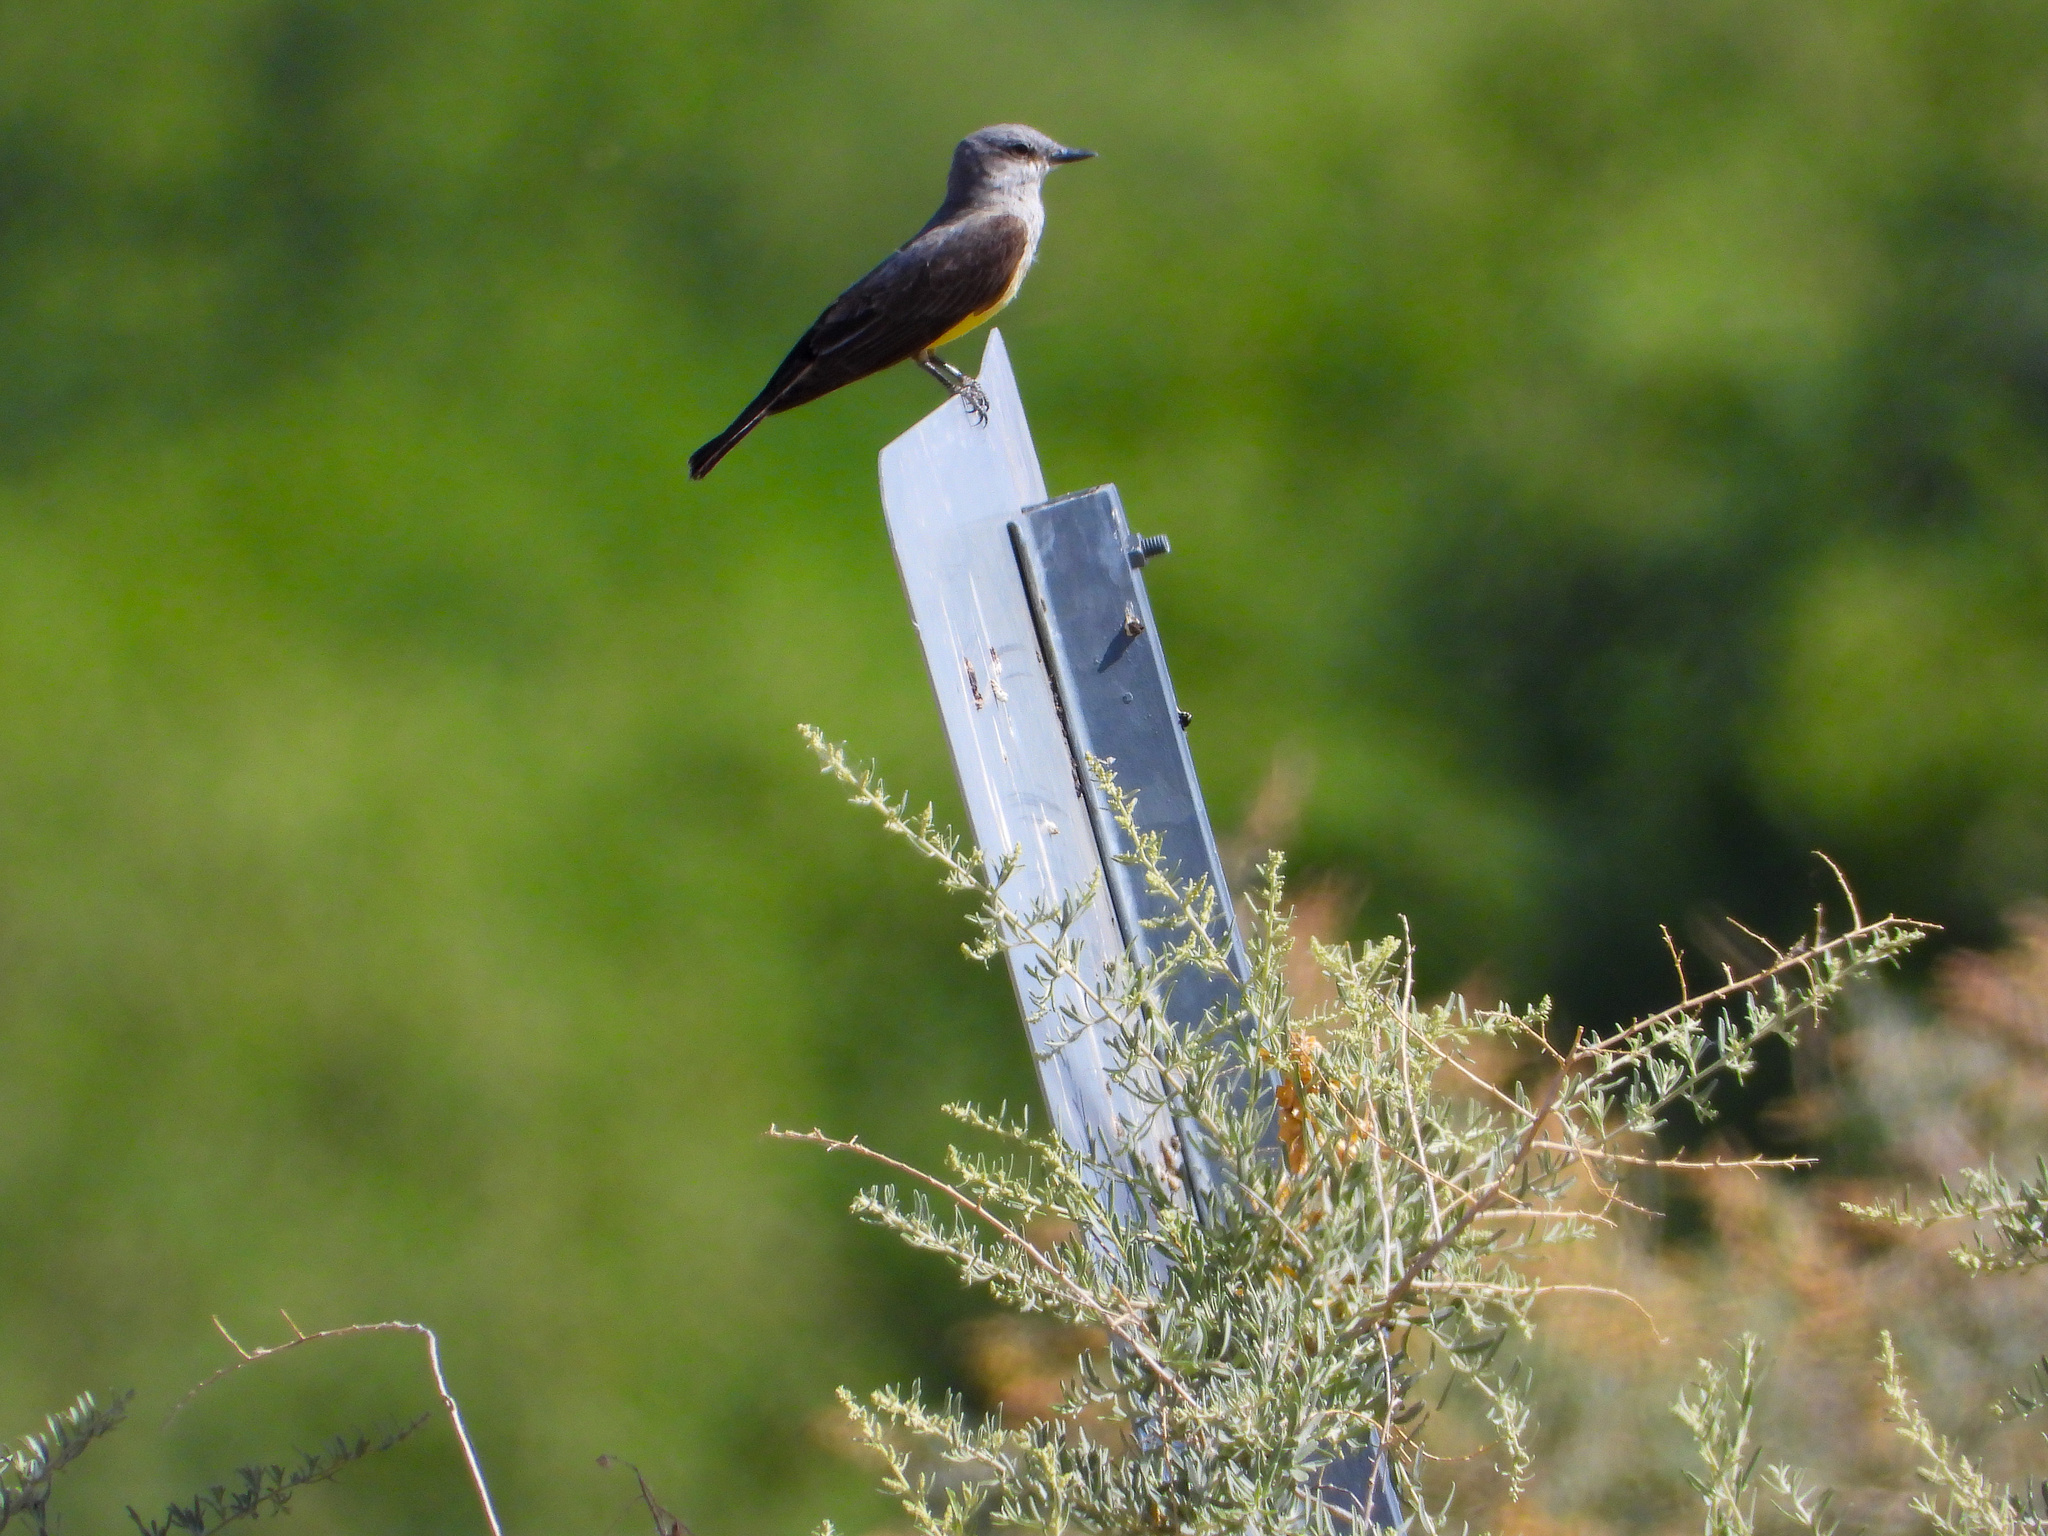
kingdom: Animalia
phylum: Chordata
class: Aves
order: Passeriformes
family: Tyrannidae
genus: Tyrannus
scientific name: Tyrannus verticalis
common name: Western kingbird
